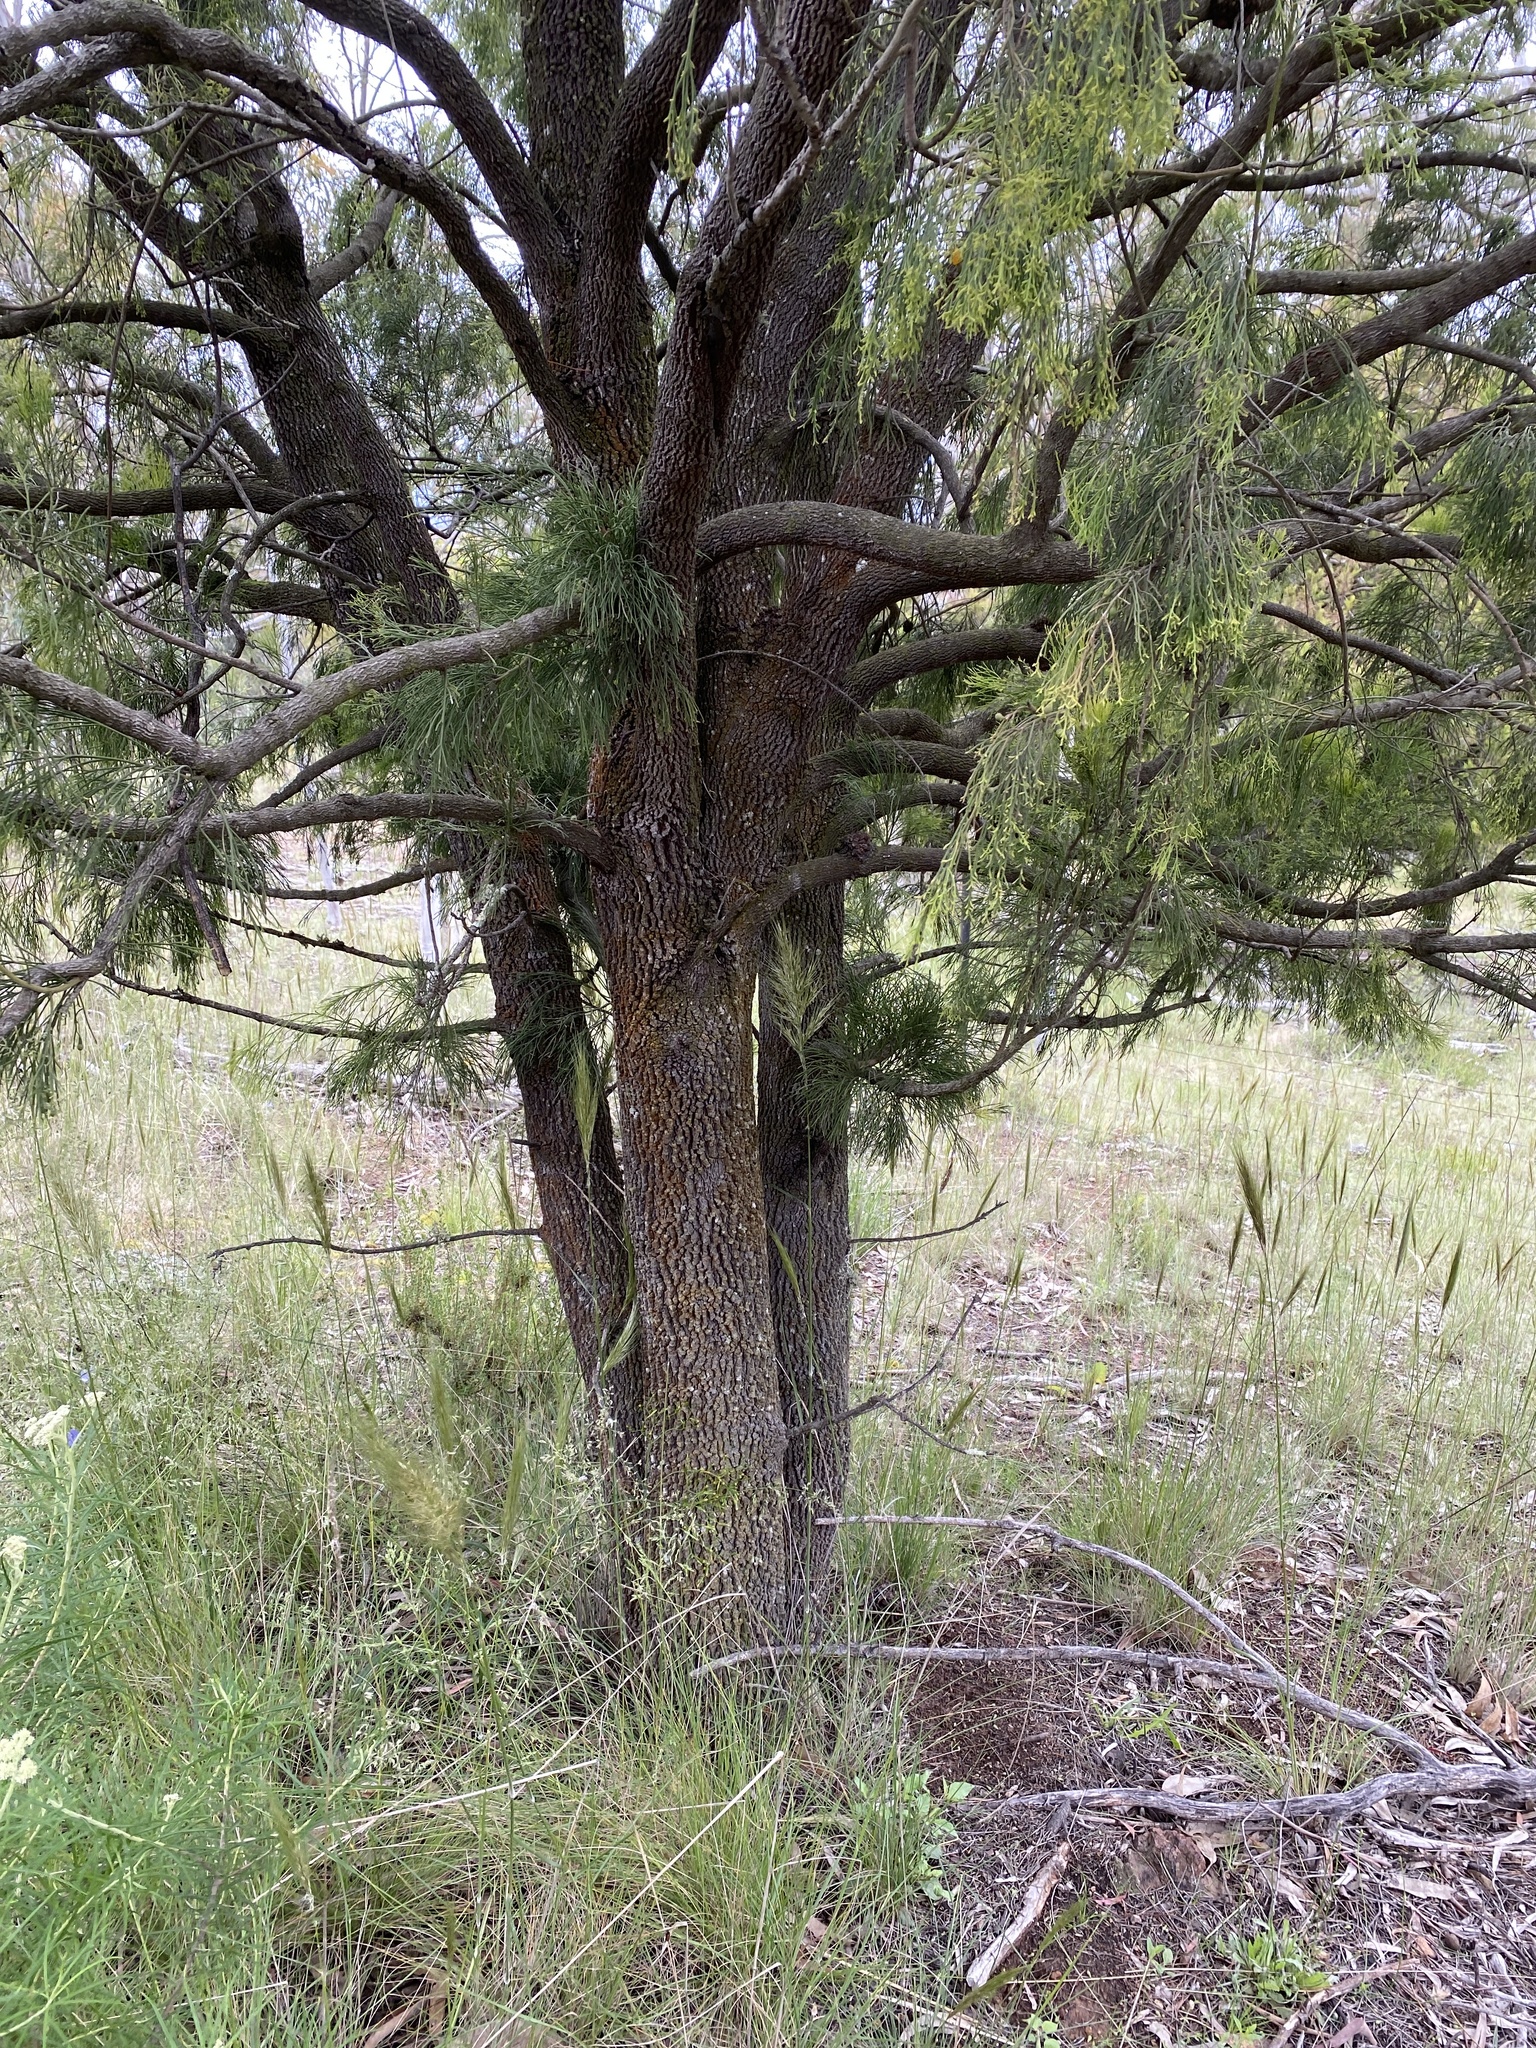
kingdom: Plantae
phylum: Tracheophyta
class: Magnoliopsida
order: Santalales
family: Santalaceae
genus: Exocarpos
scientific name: Exocarpos cupressiformis
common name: Cherry ballart
